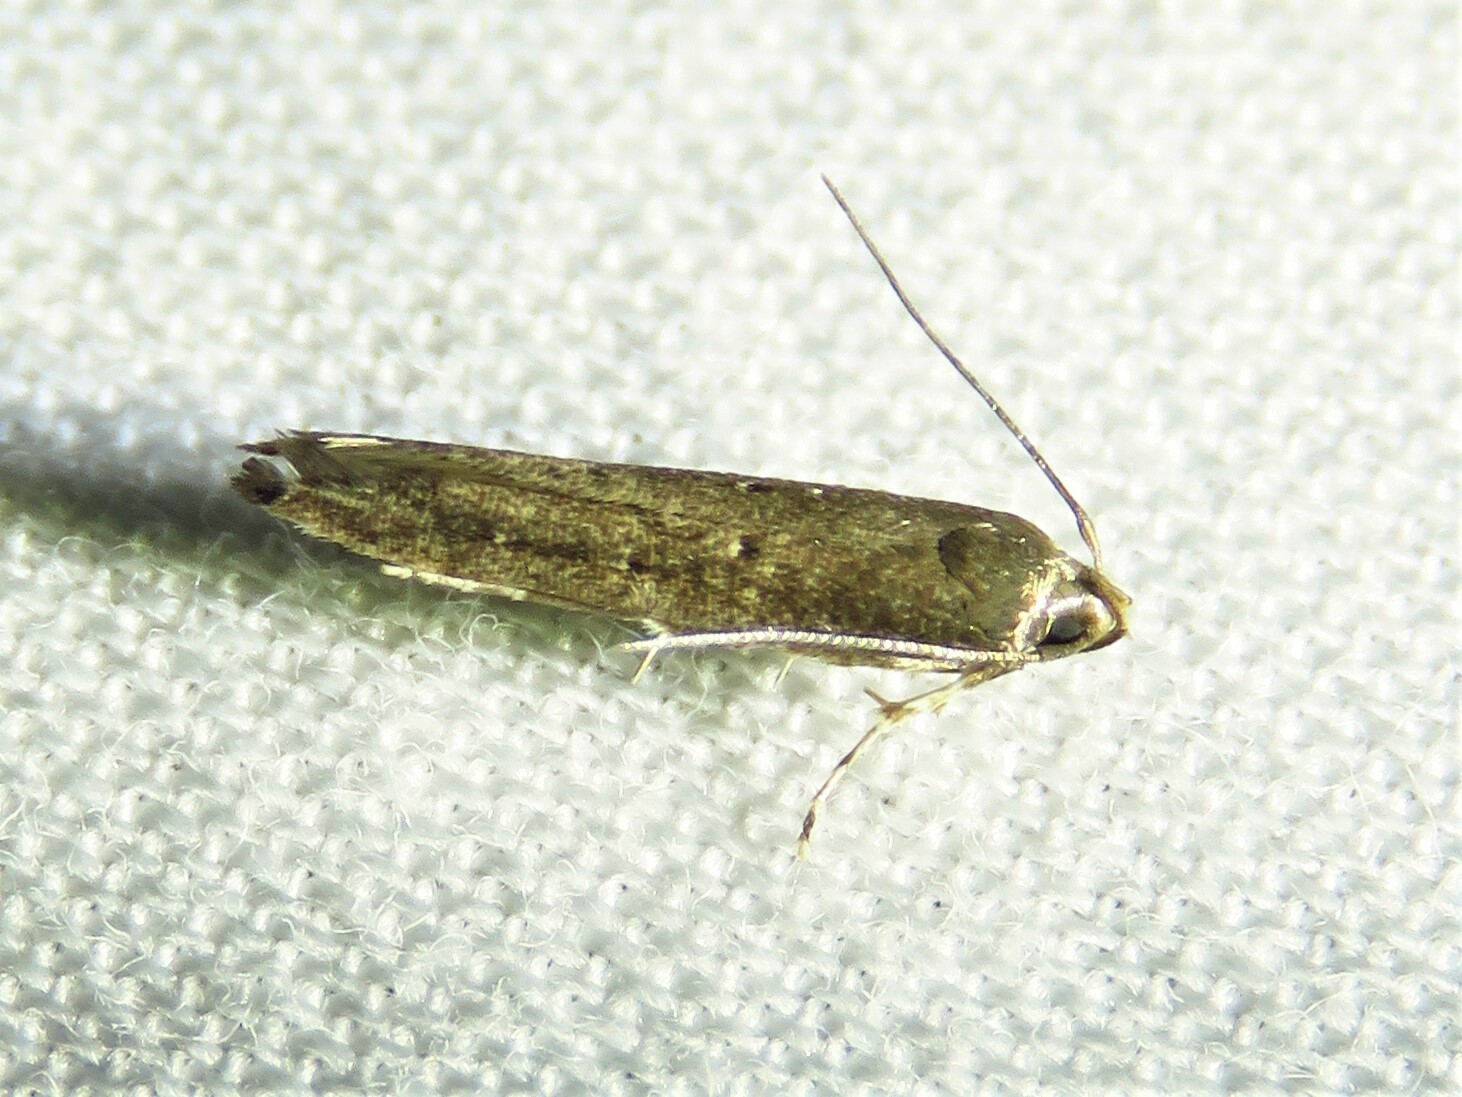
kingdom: Animalia
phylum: Arthropoda
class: Insecta
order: Lepidoptera
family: Cosmopterigidae
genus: Ithome
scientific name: Ithome erransella
